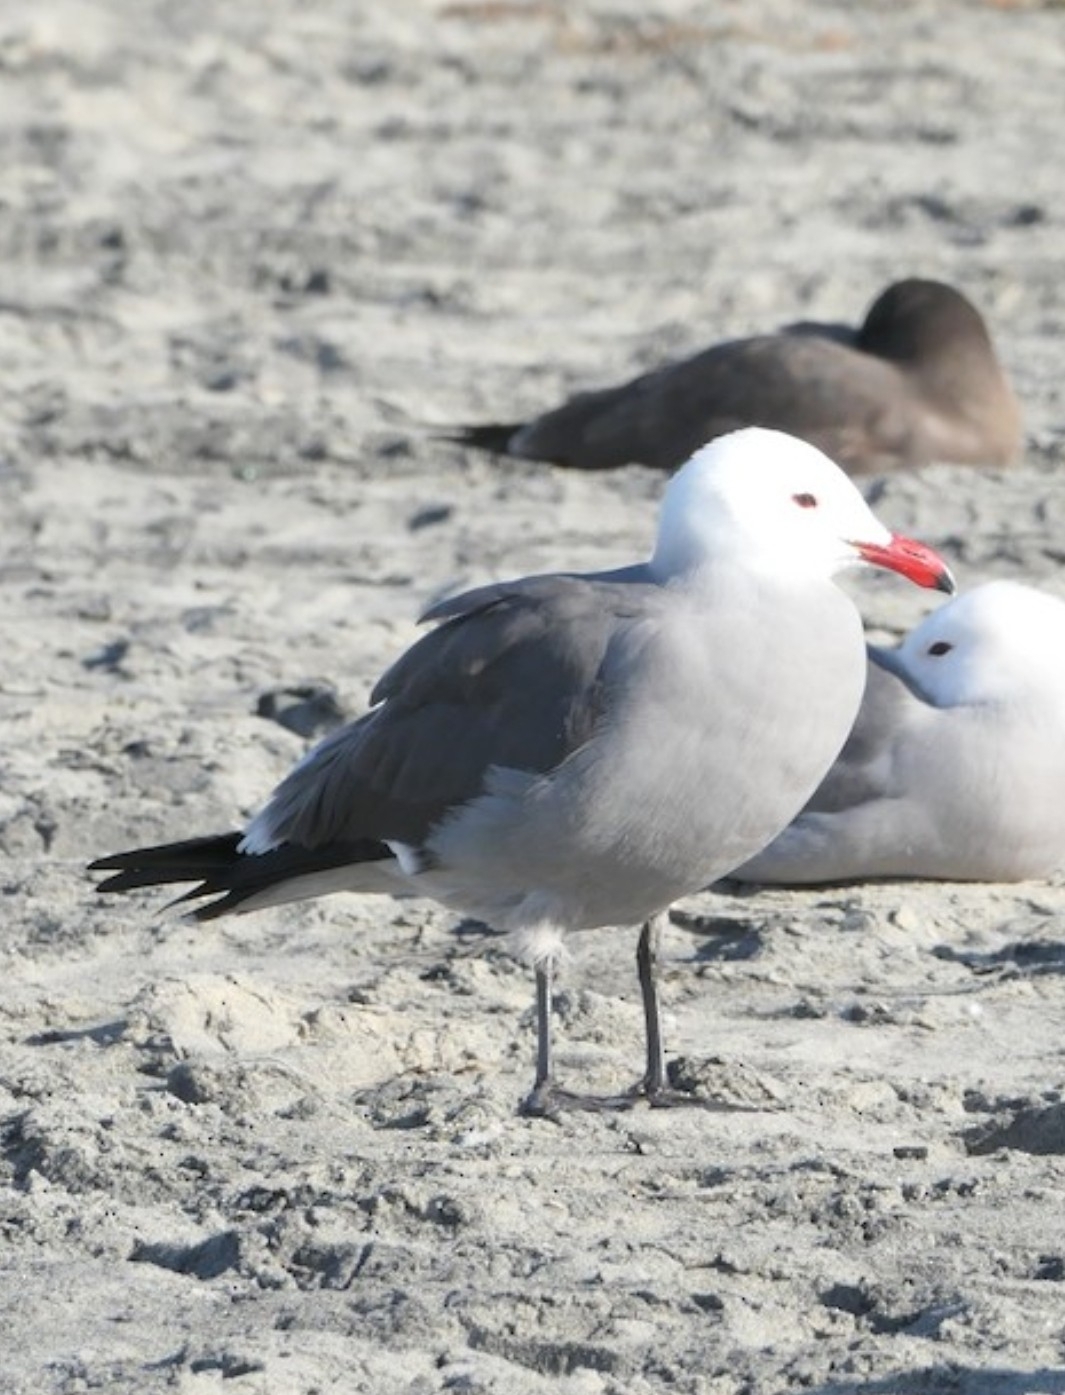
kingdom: Animalia
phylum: Chordata
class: Aves
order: Charadriiformes
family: Laridae
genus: Larus
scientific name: Larus heermanni
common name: Heermann's gull
